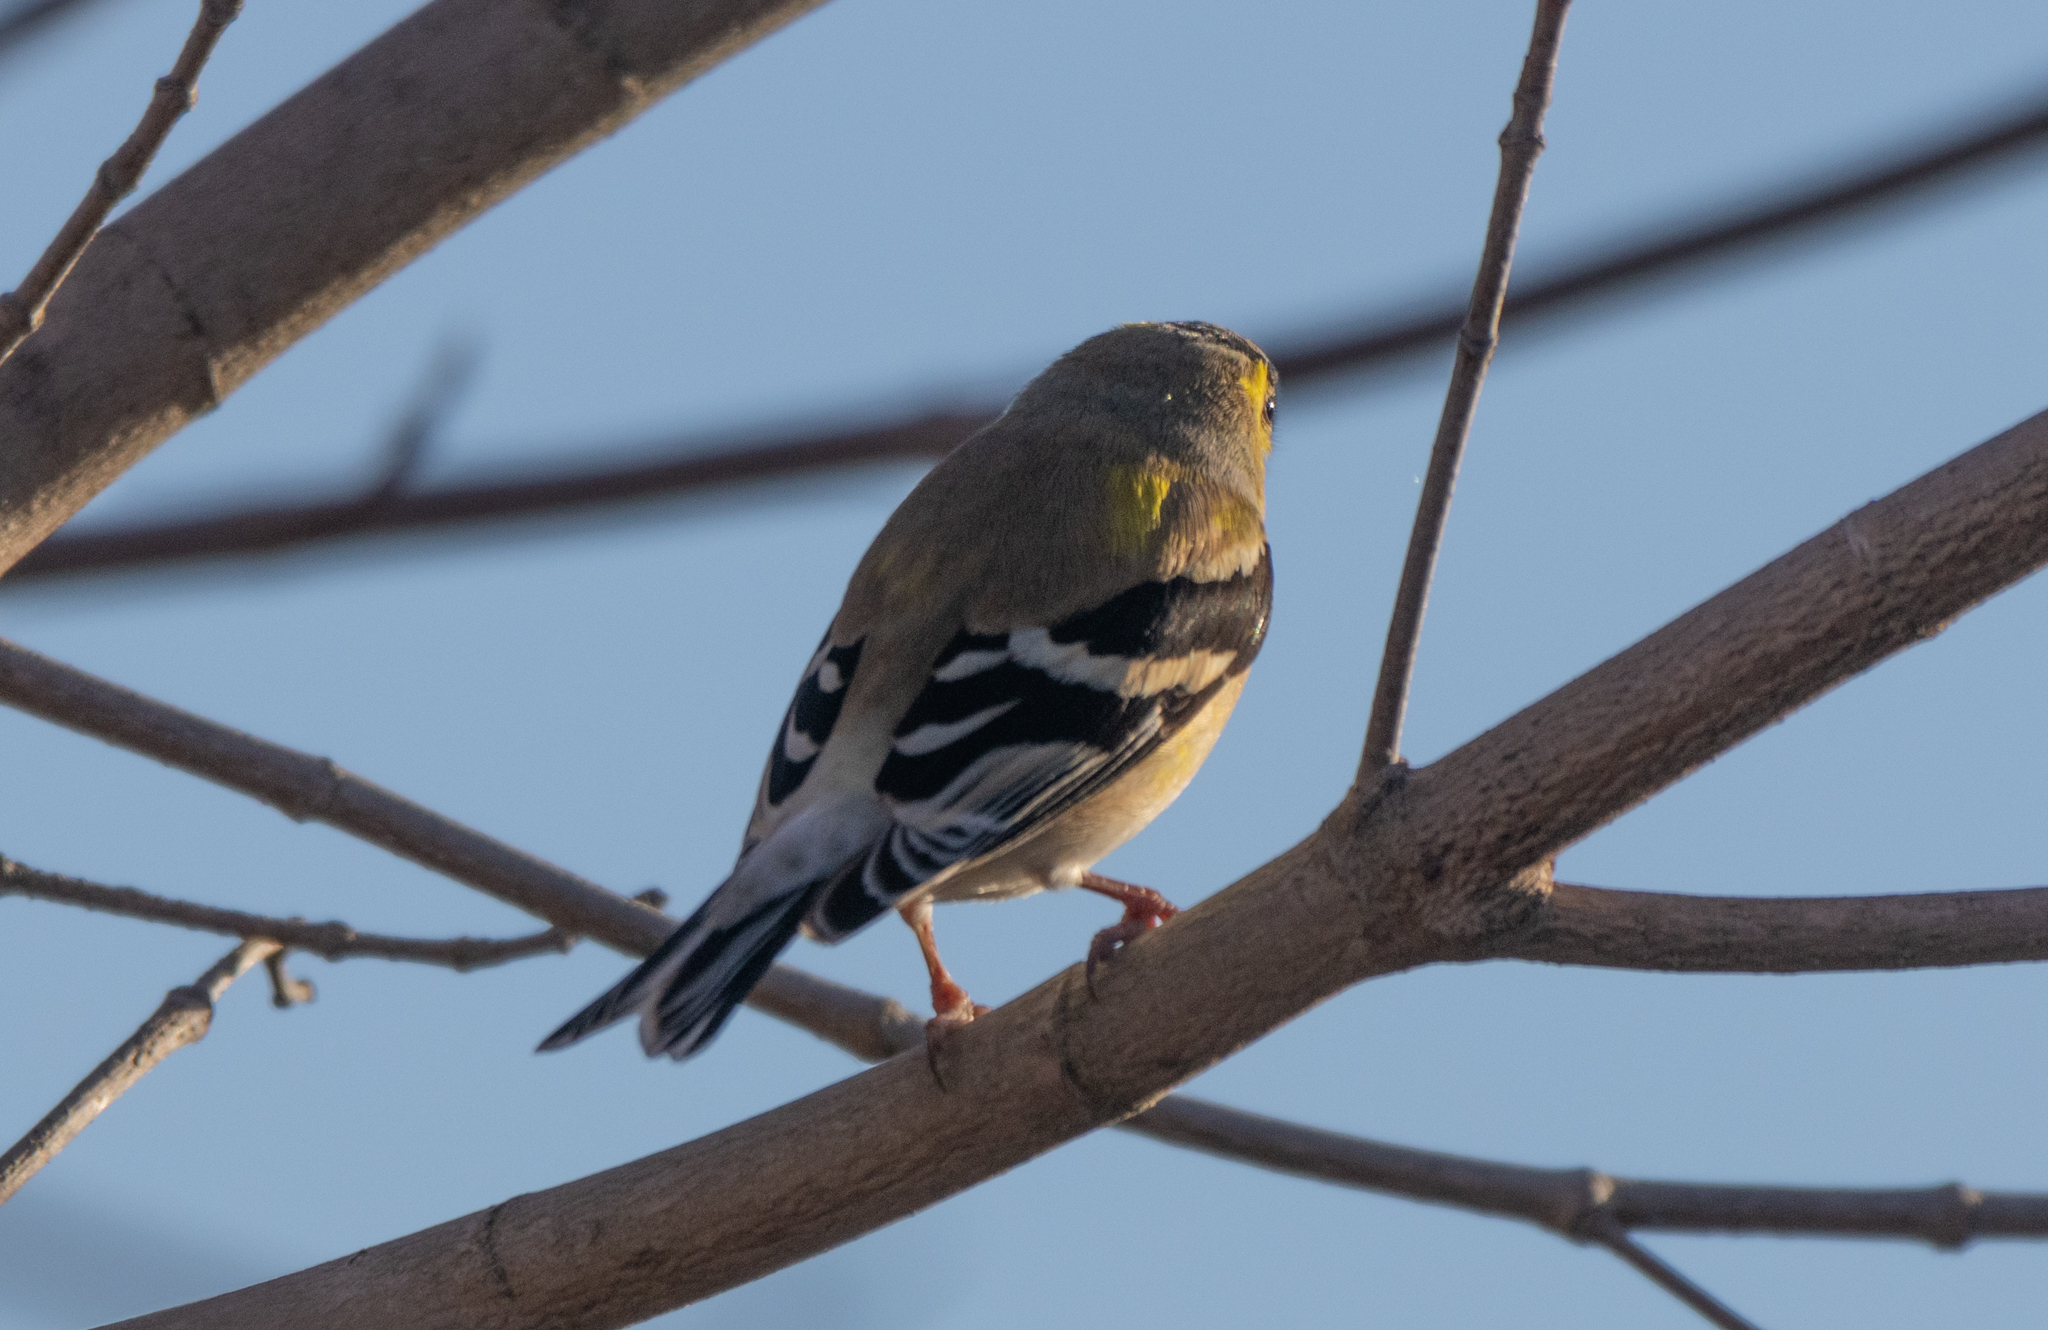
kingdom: Animalia
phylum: Chordata
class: Aves
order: Passeriformes
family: Fringillidae
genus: Spinus
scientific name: Spinus tristis
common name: American goldfinch
